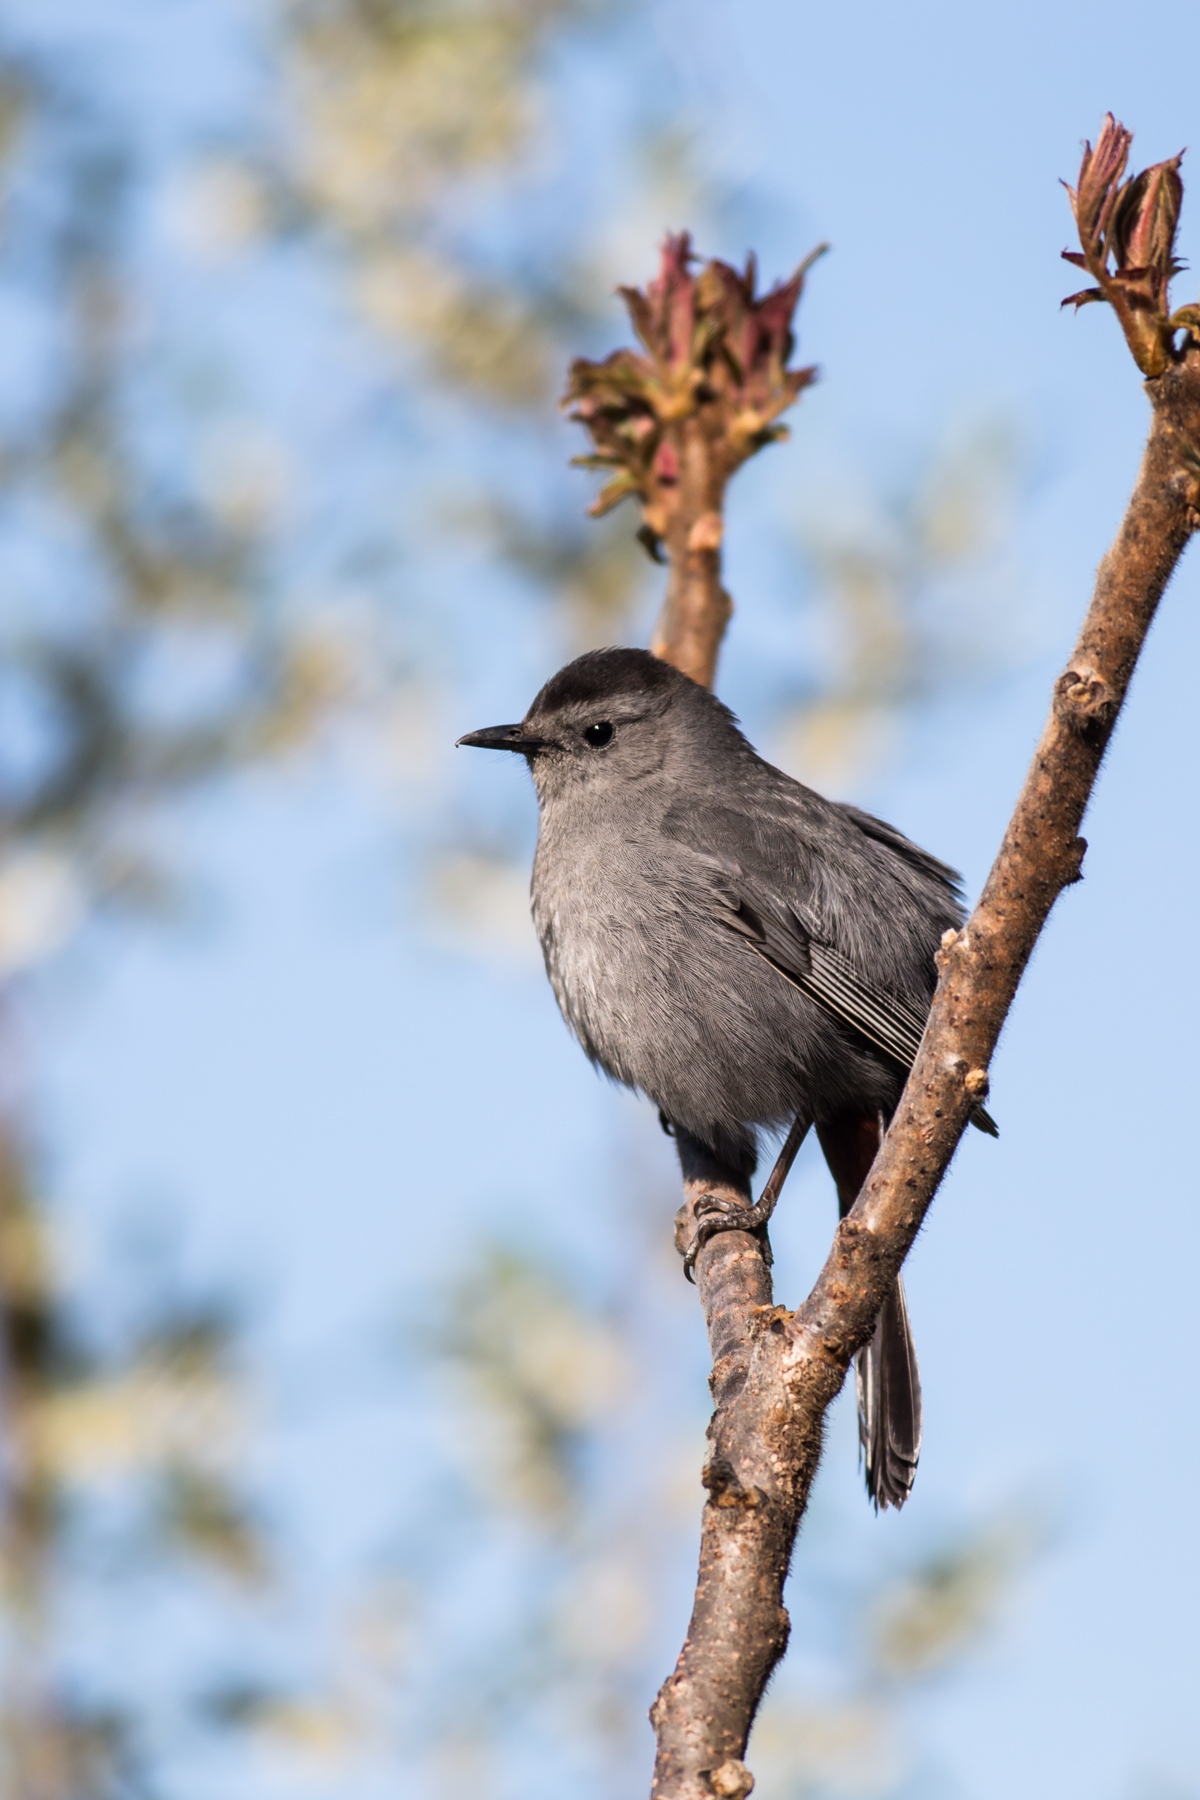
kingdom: Animalia
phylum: Chordata
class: Aves
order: Passeriformes
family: Mimidae
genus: Dumetella
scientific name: Dumetella carolinensis
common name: Gray catbird
